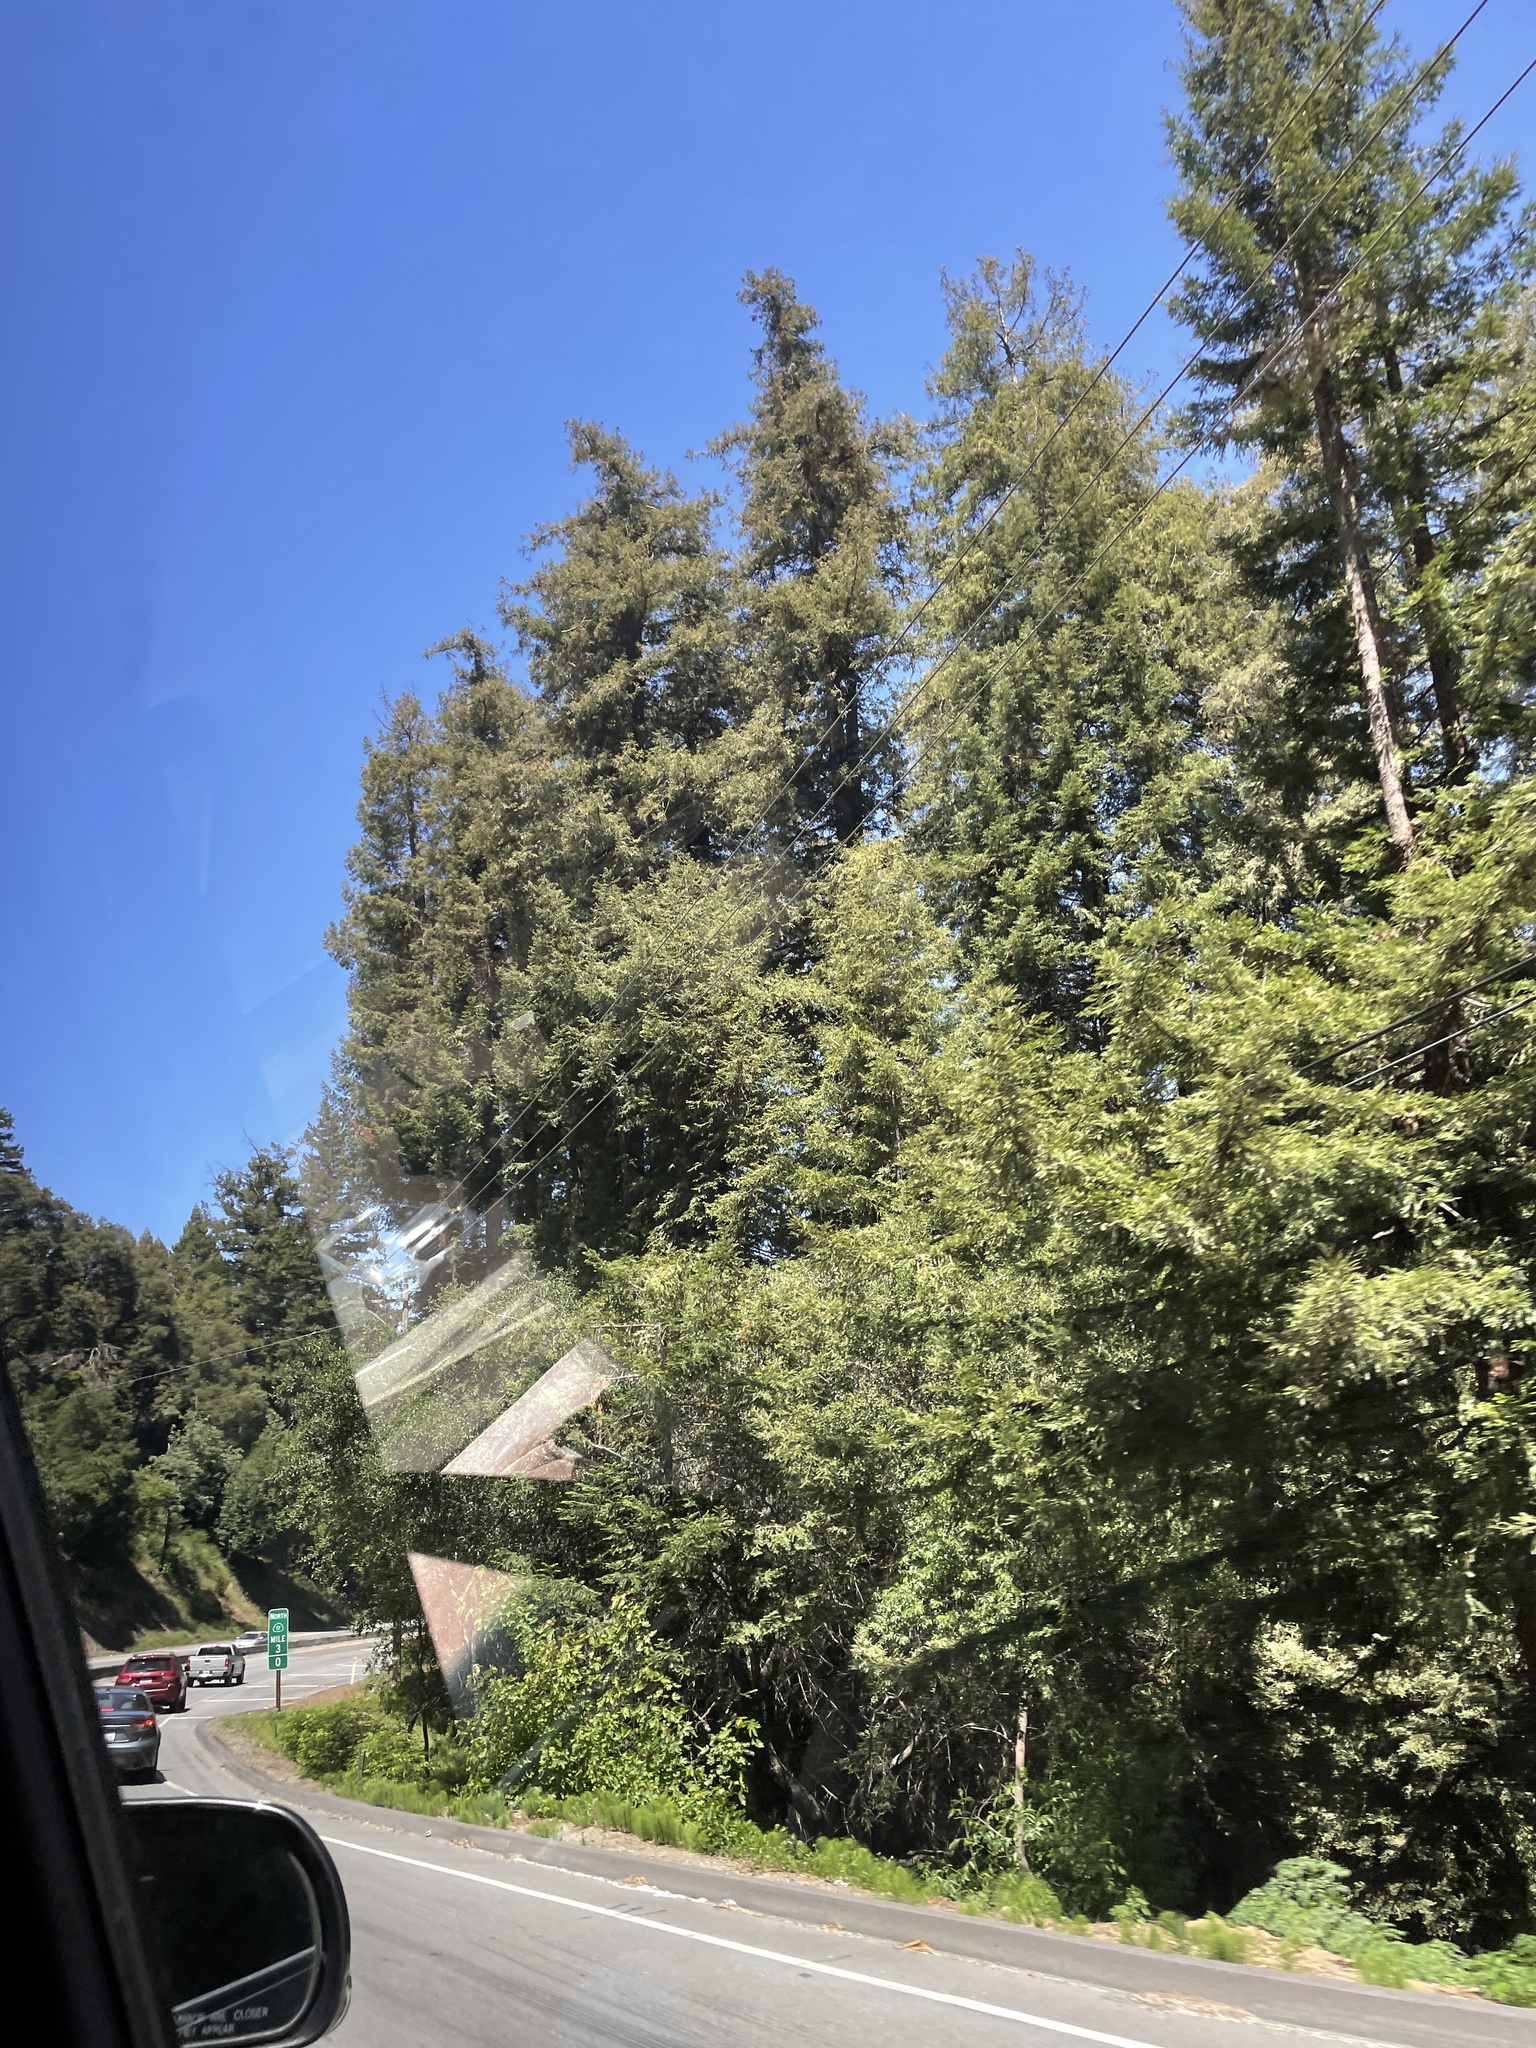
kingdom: Plantae
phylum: Tracheophyta
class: Pinopsida
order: Pinales
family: Cupressaceae
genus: Sequoia
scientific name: Sequoia sempervirens
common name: Coast redwood
